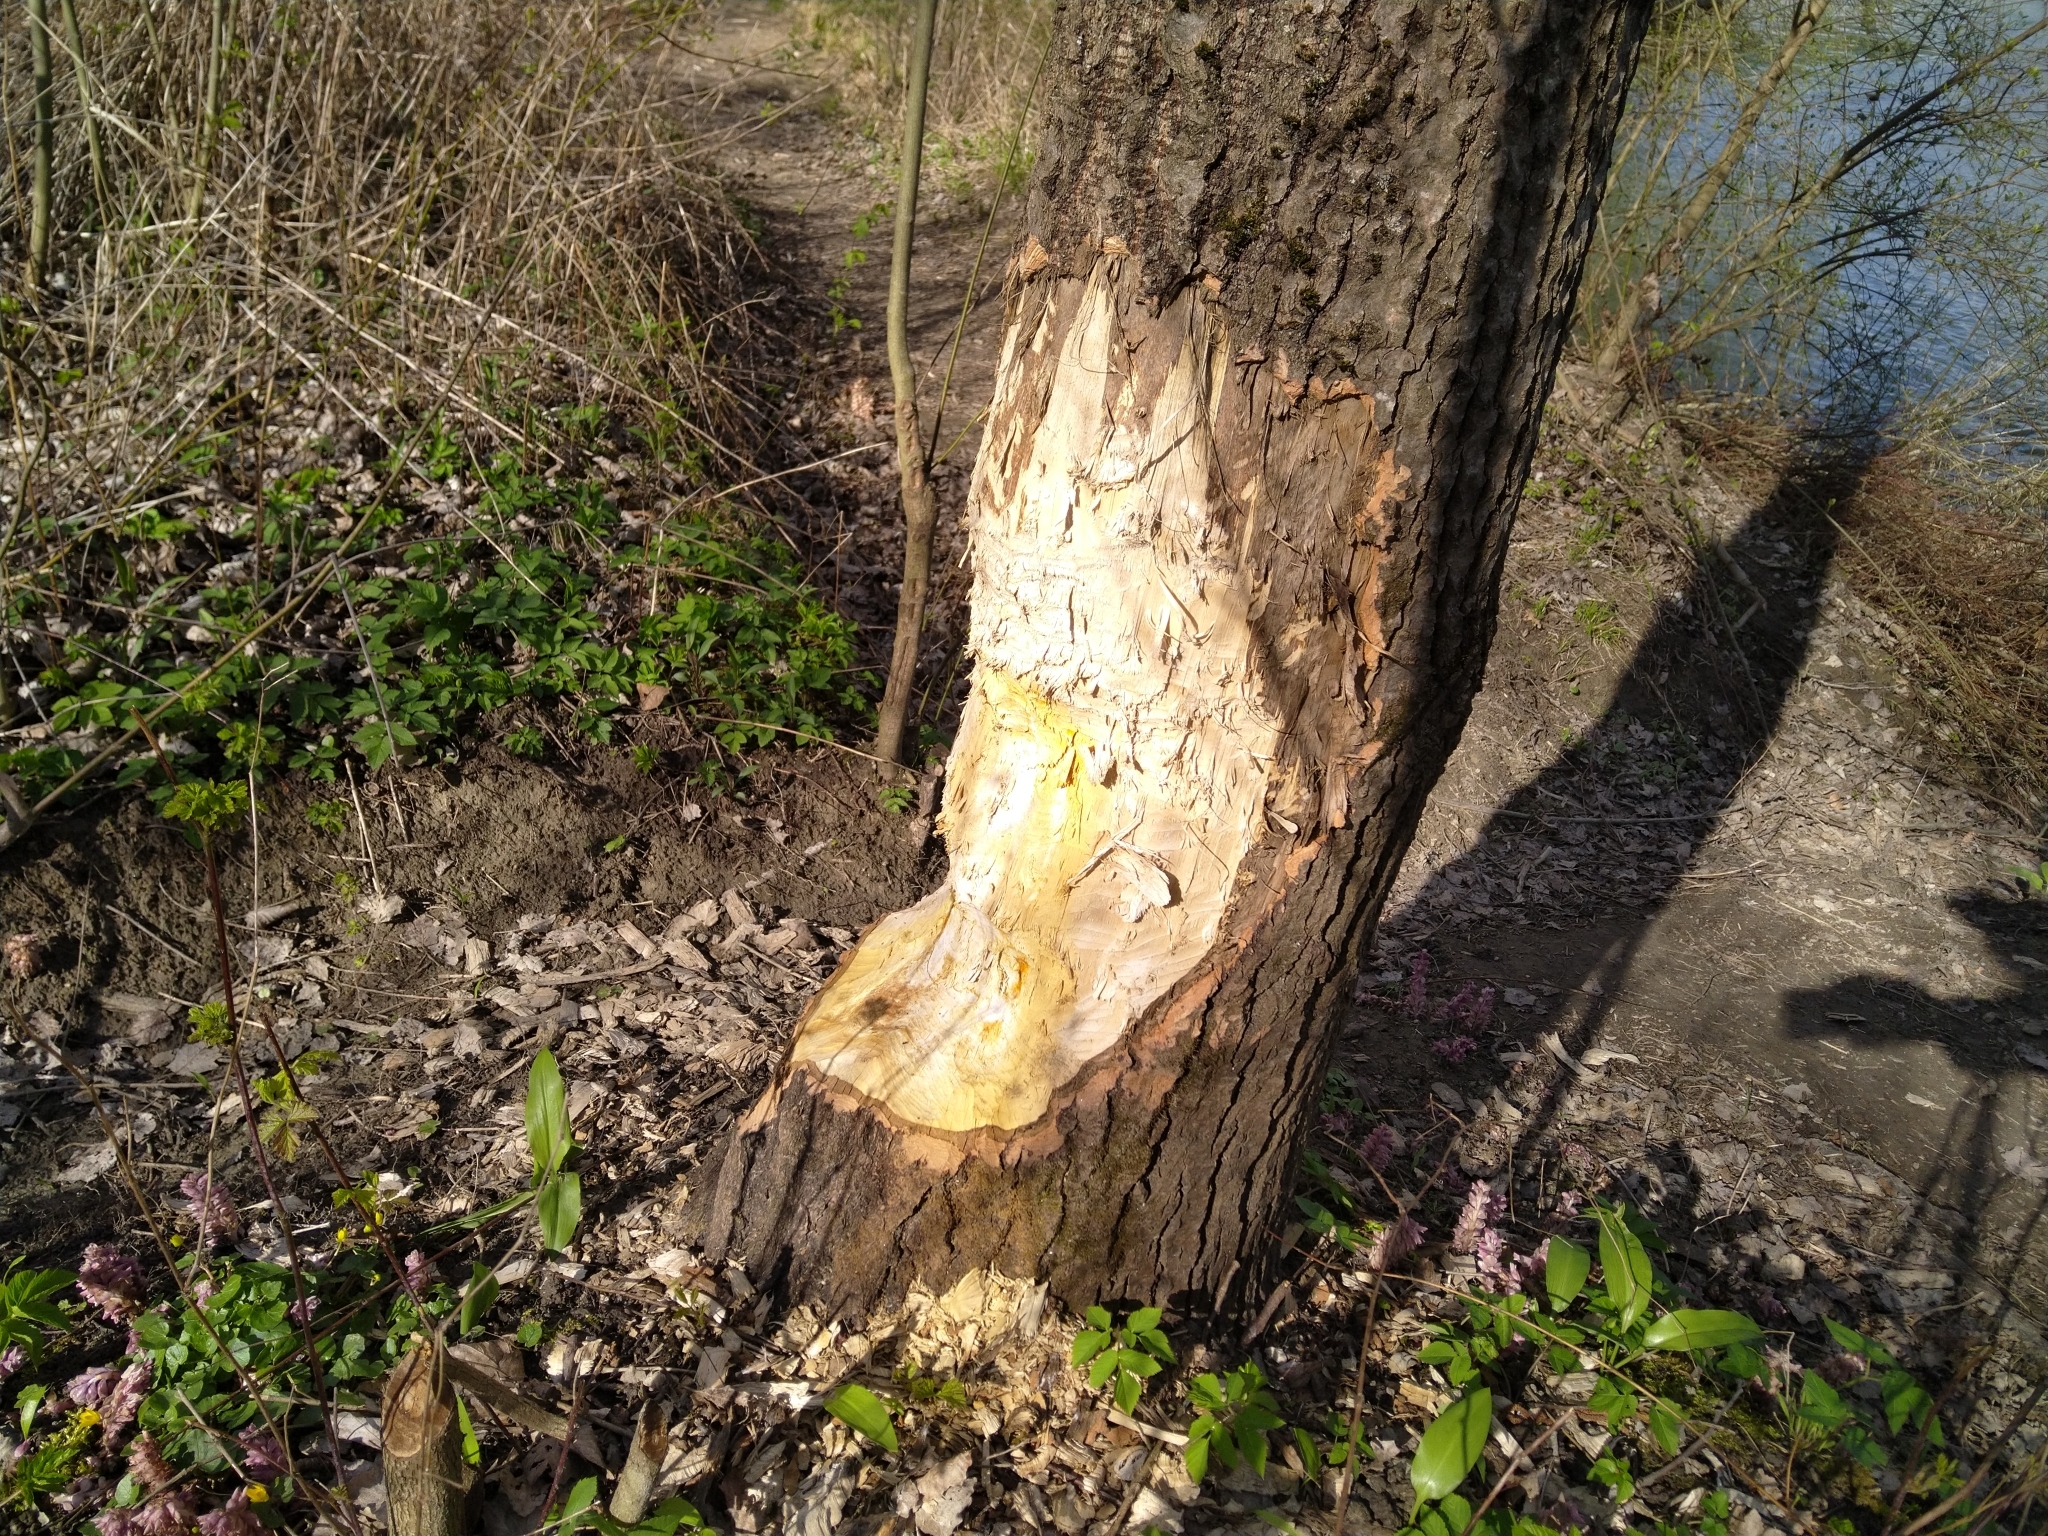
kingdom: Animalia
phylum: Chordata
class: Mammalia
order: Rodentia
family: Castoridae
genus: Castor
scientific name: Castor fiber
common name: Eurasian beaver
